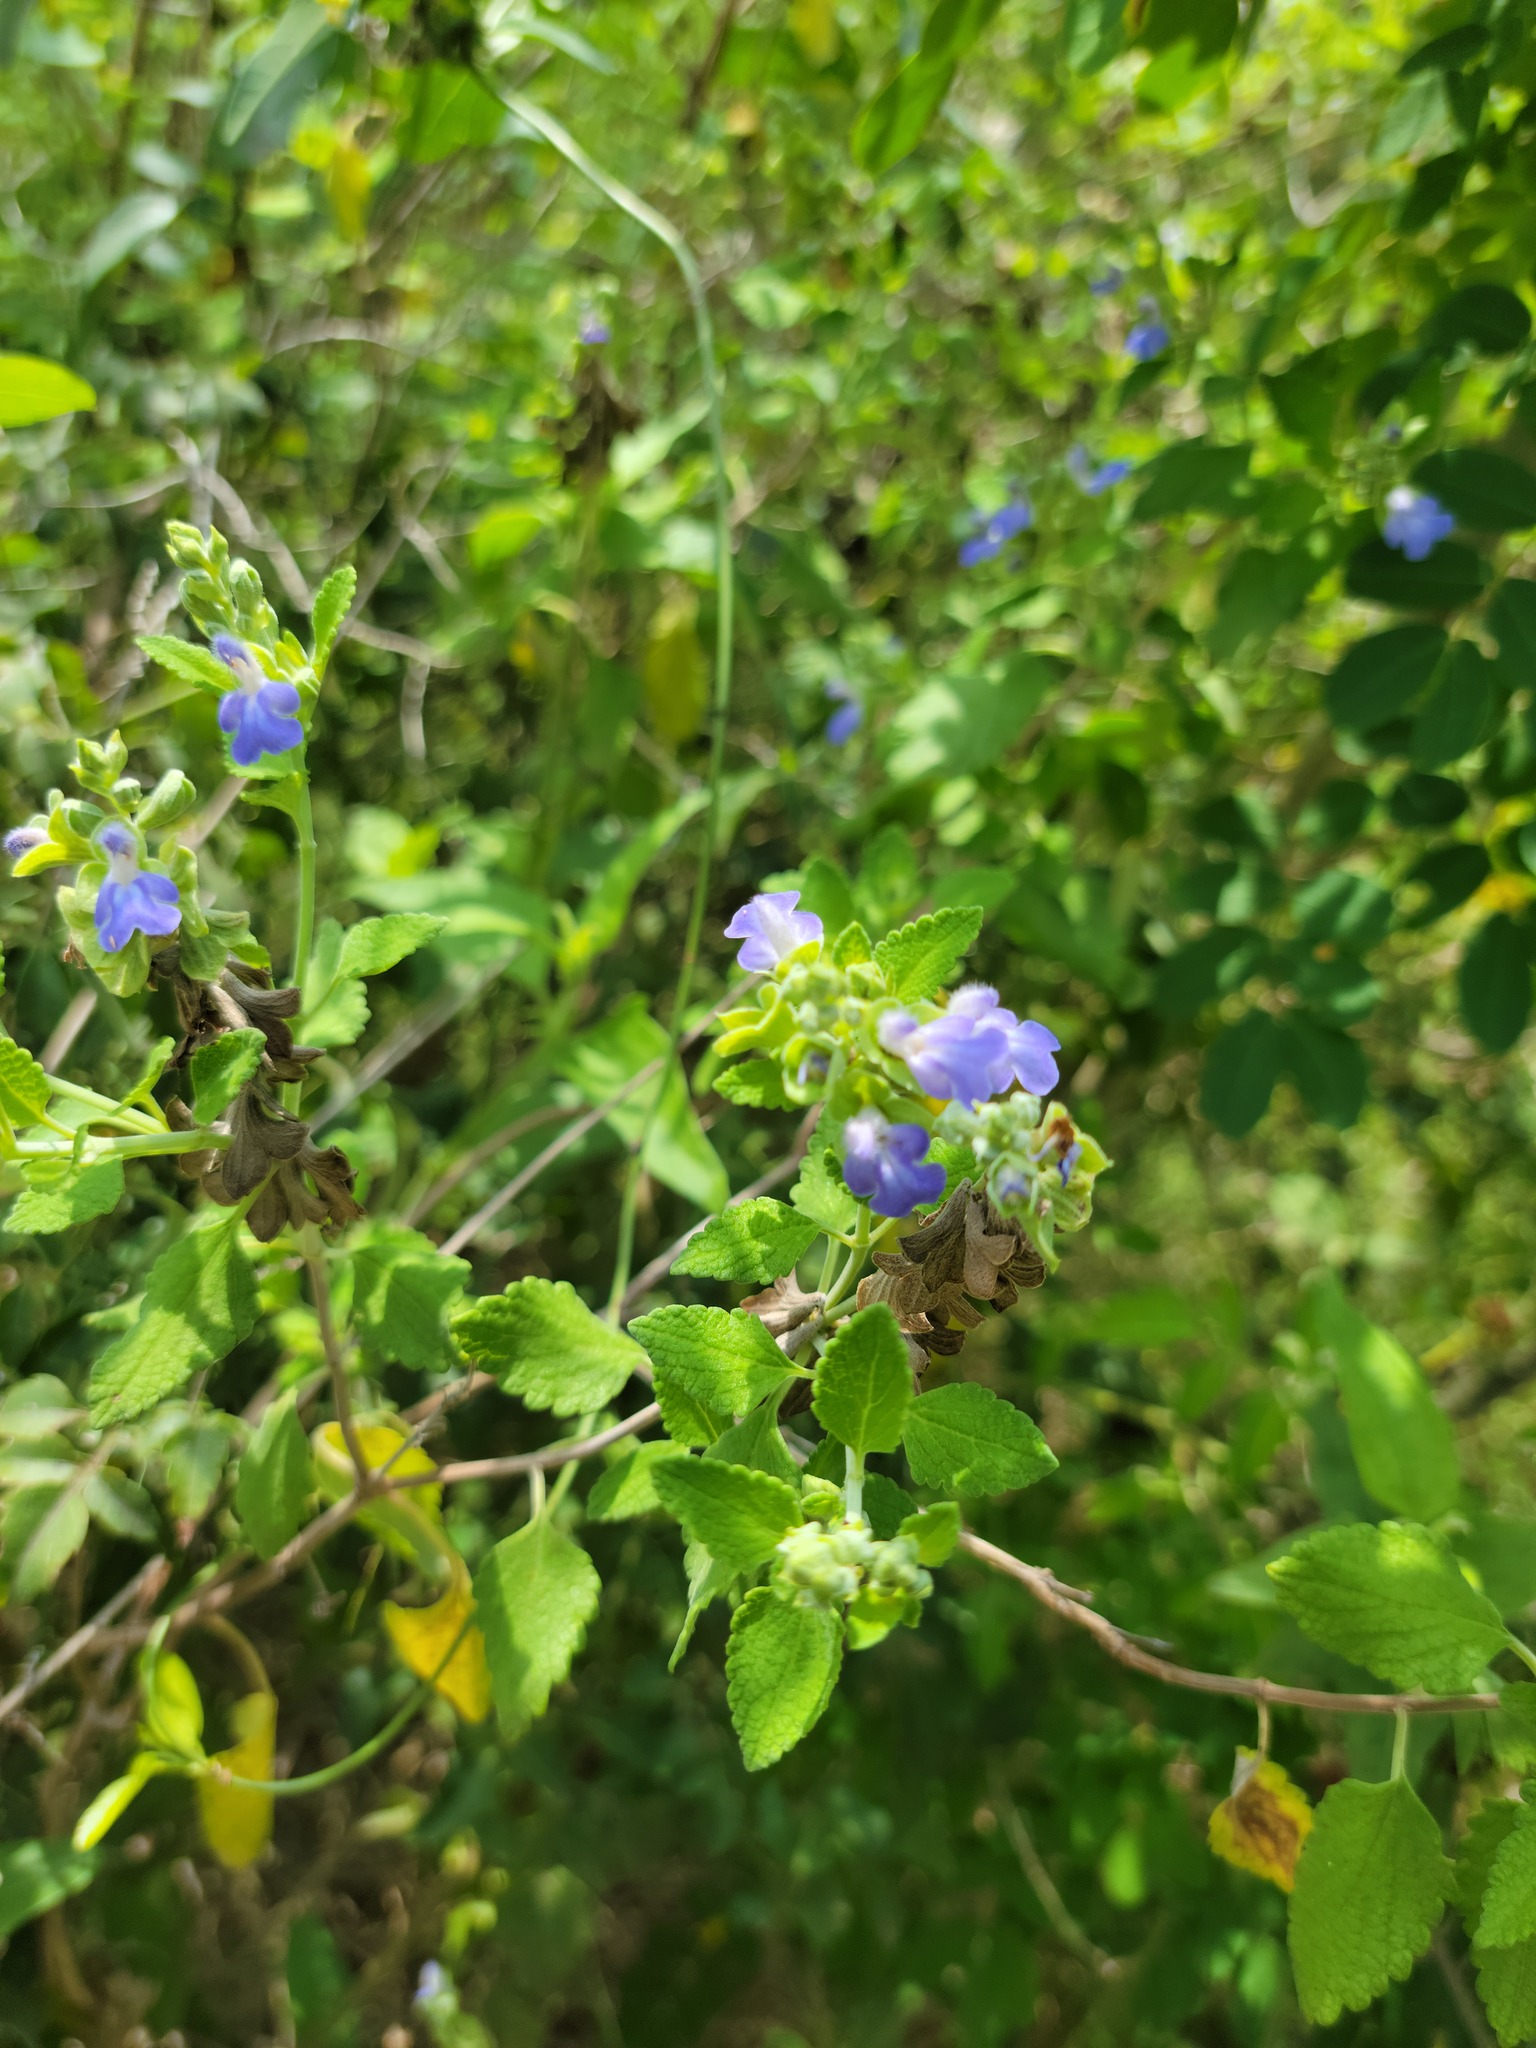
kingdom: Plantae
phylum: Tracheophyta
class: Magnoliopsida
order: Lamiales
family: Lamiaceae
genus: Salvia
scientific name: Salvia ballotiflora
